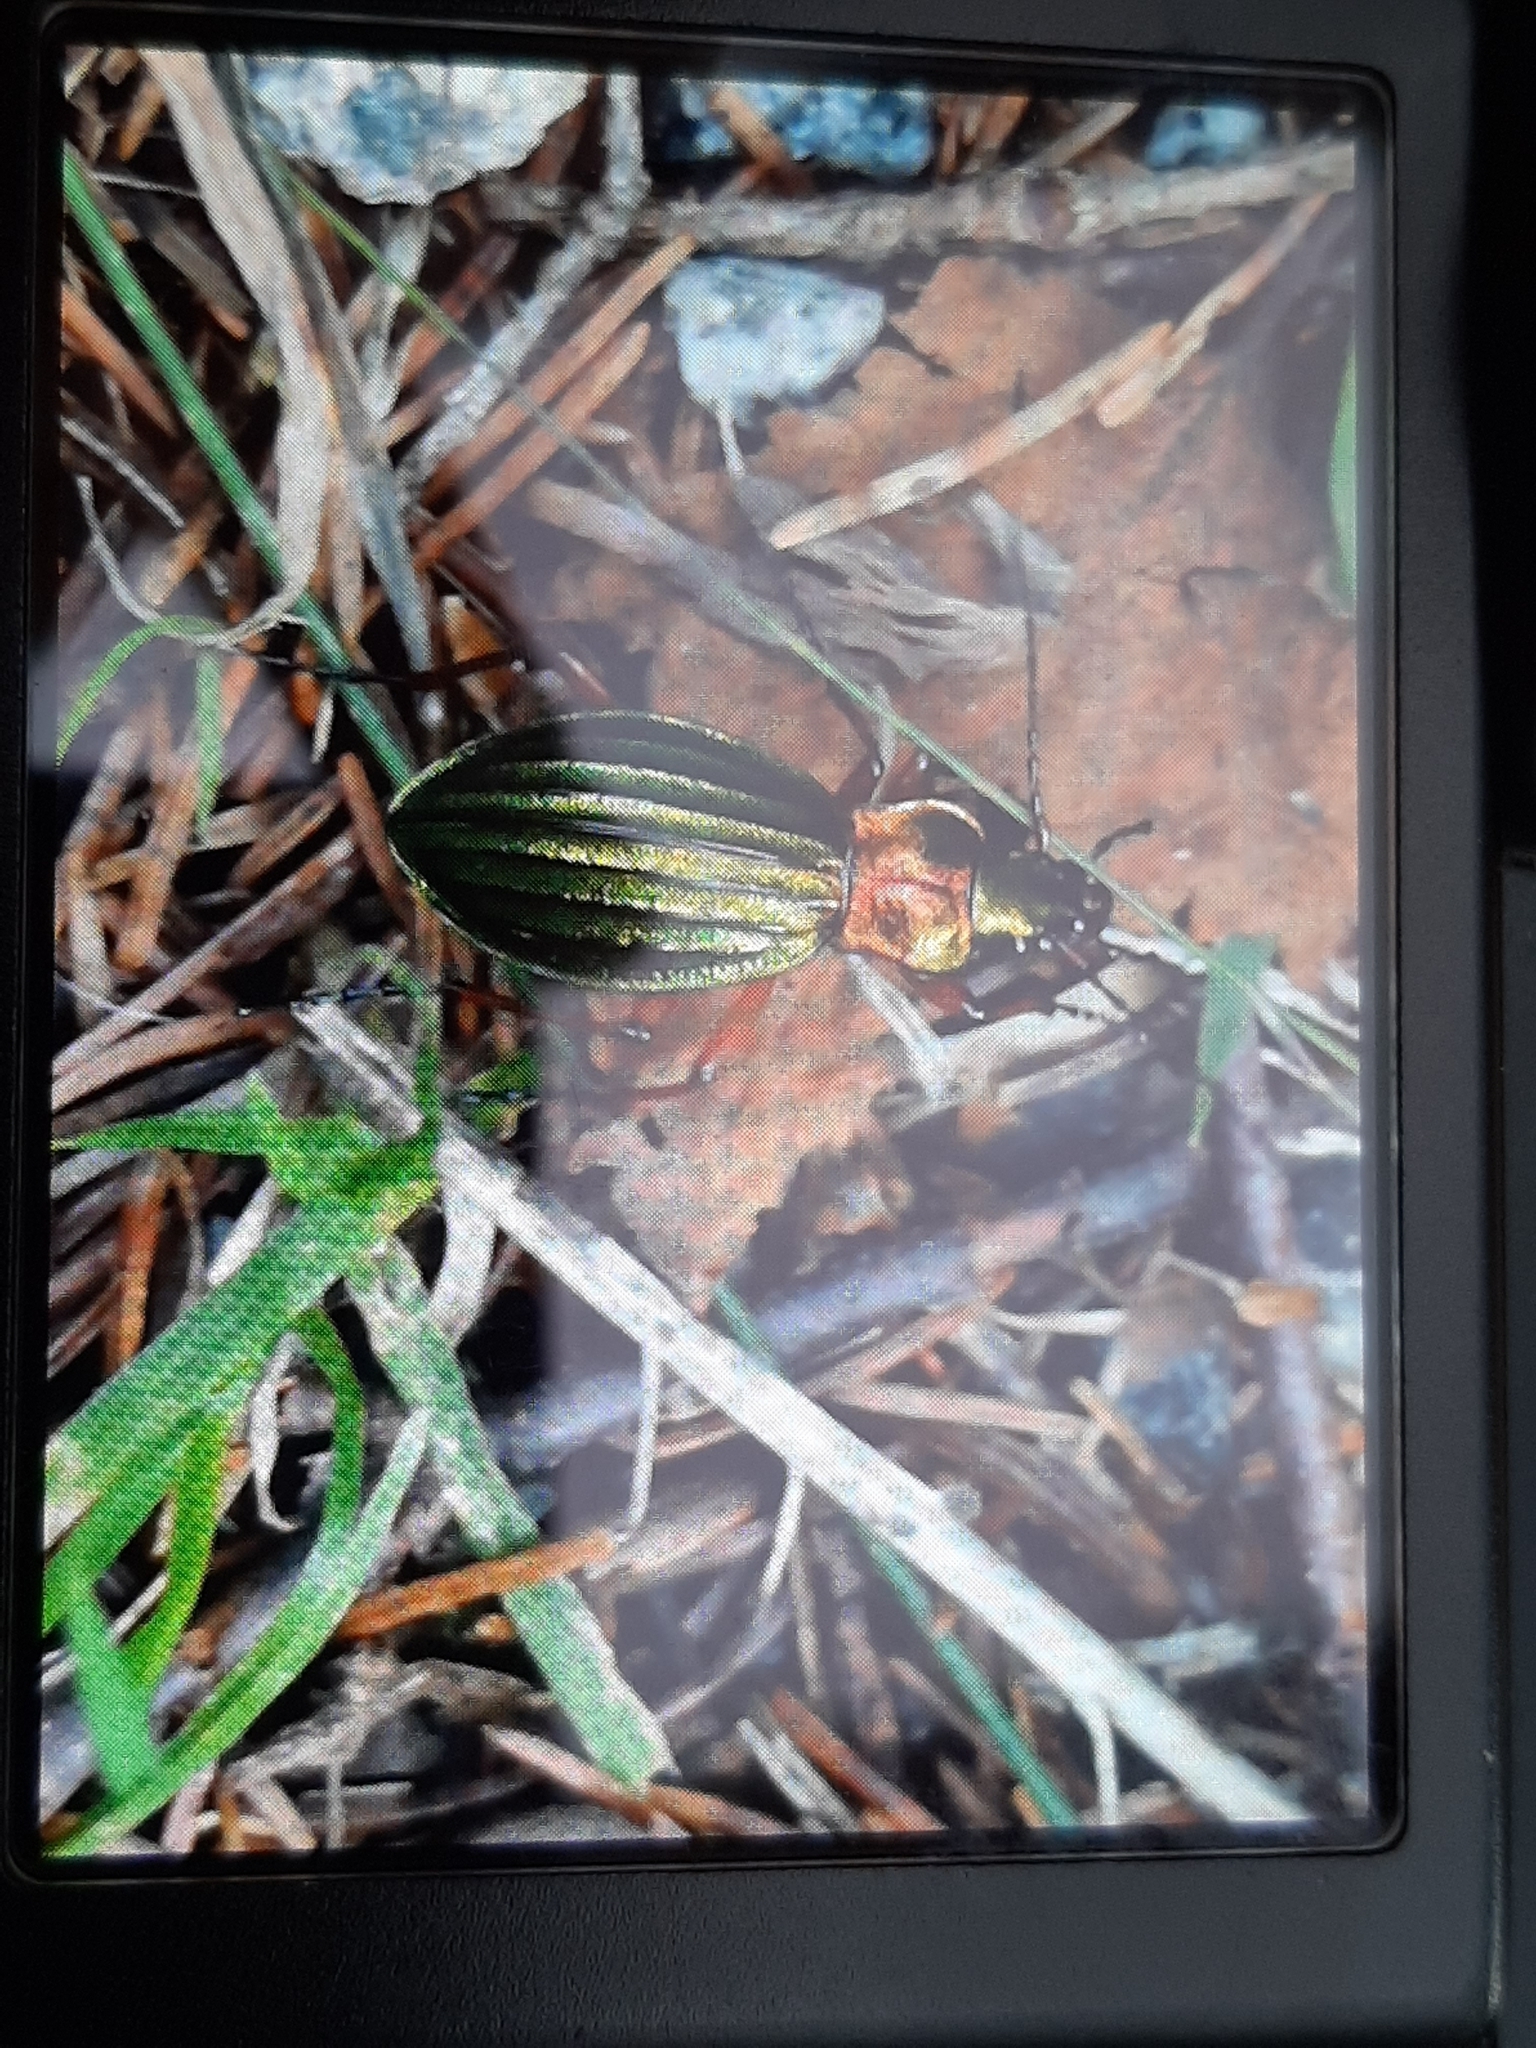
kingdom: Animalia
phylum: Arthropoda
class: Insecta
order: Coleoptera
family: Carabidae
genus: Carabus
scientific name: Carabus auronitens
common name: Carabus auronitens
